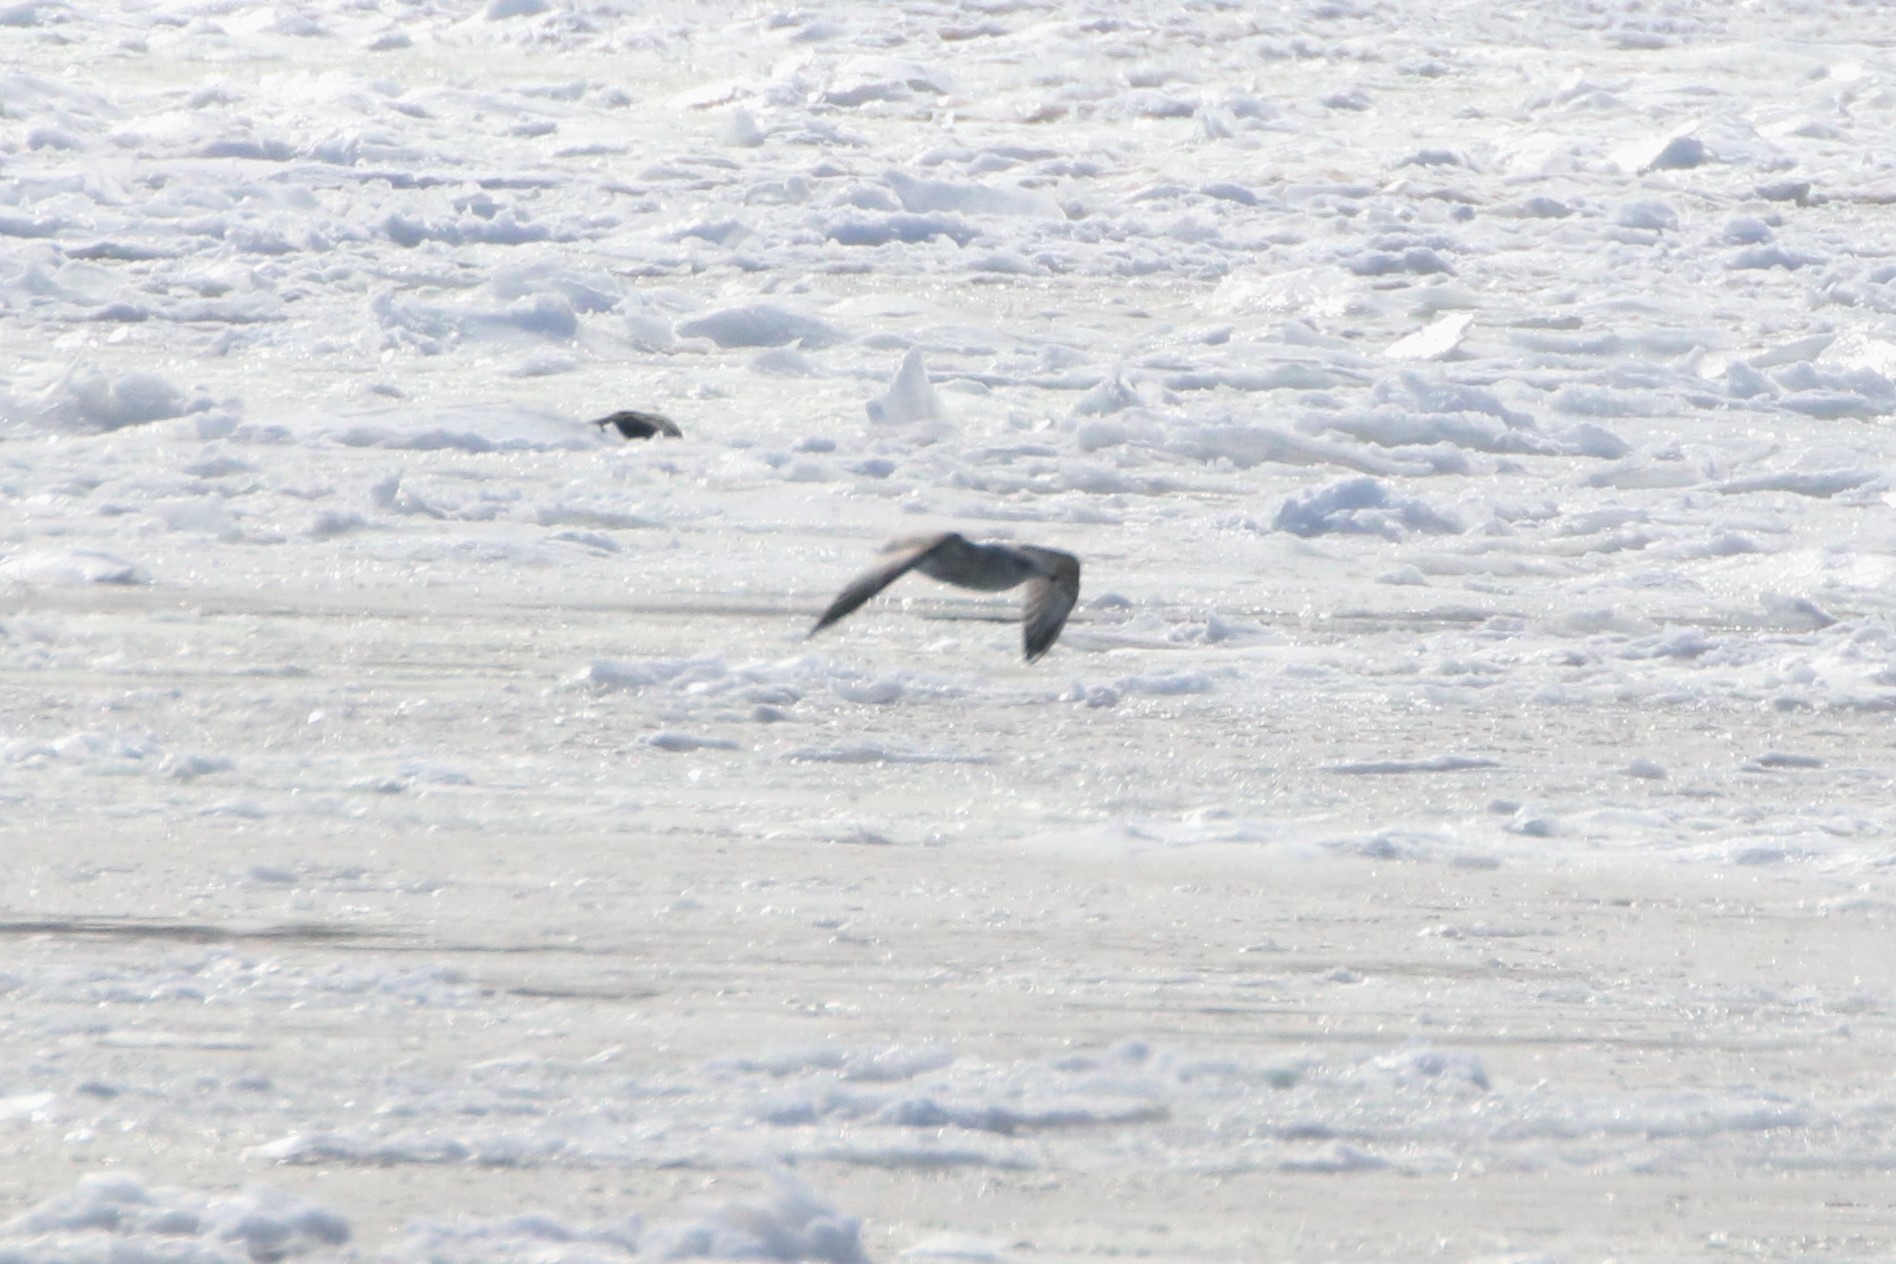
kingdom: Animalia
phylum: Chordata
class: Aves
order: Charadriiformes
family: Laridae
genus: Larus
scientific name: Larus argentatus
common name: Herring gull
